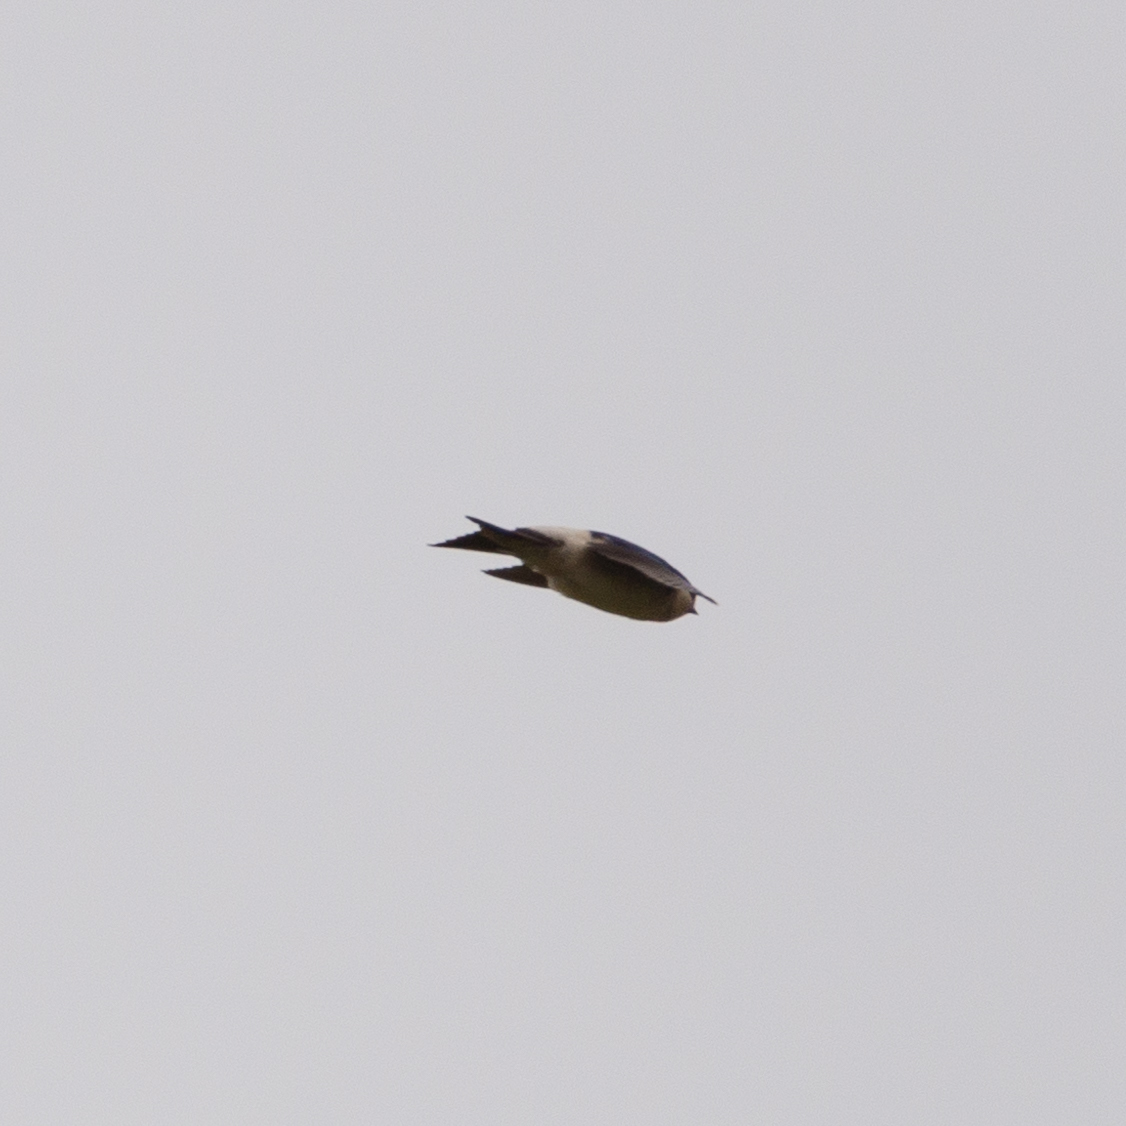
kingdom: Animalia
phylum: Chordata
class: Aves
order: Passeriformes
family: Hirundinidae
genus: Delichon
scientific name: Delichon urbicum
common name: Common house martin
